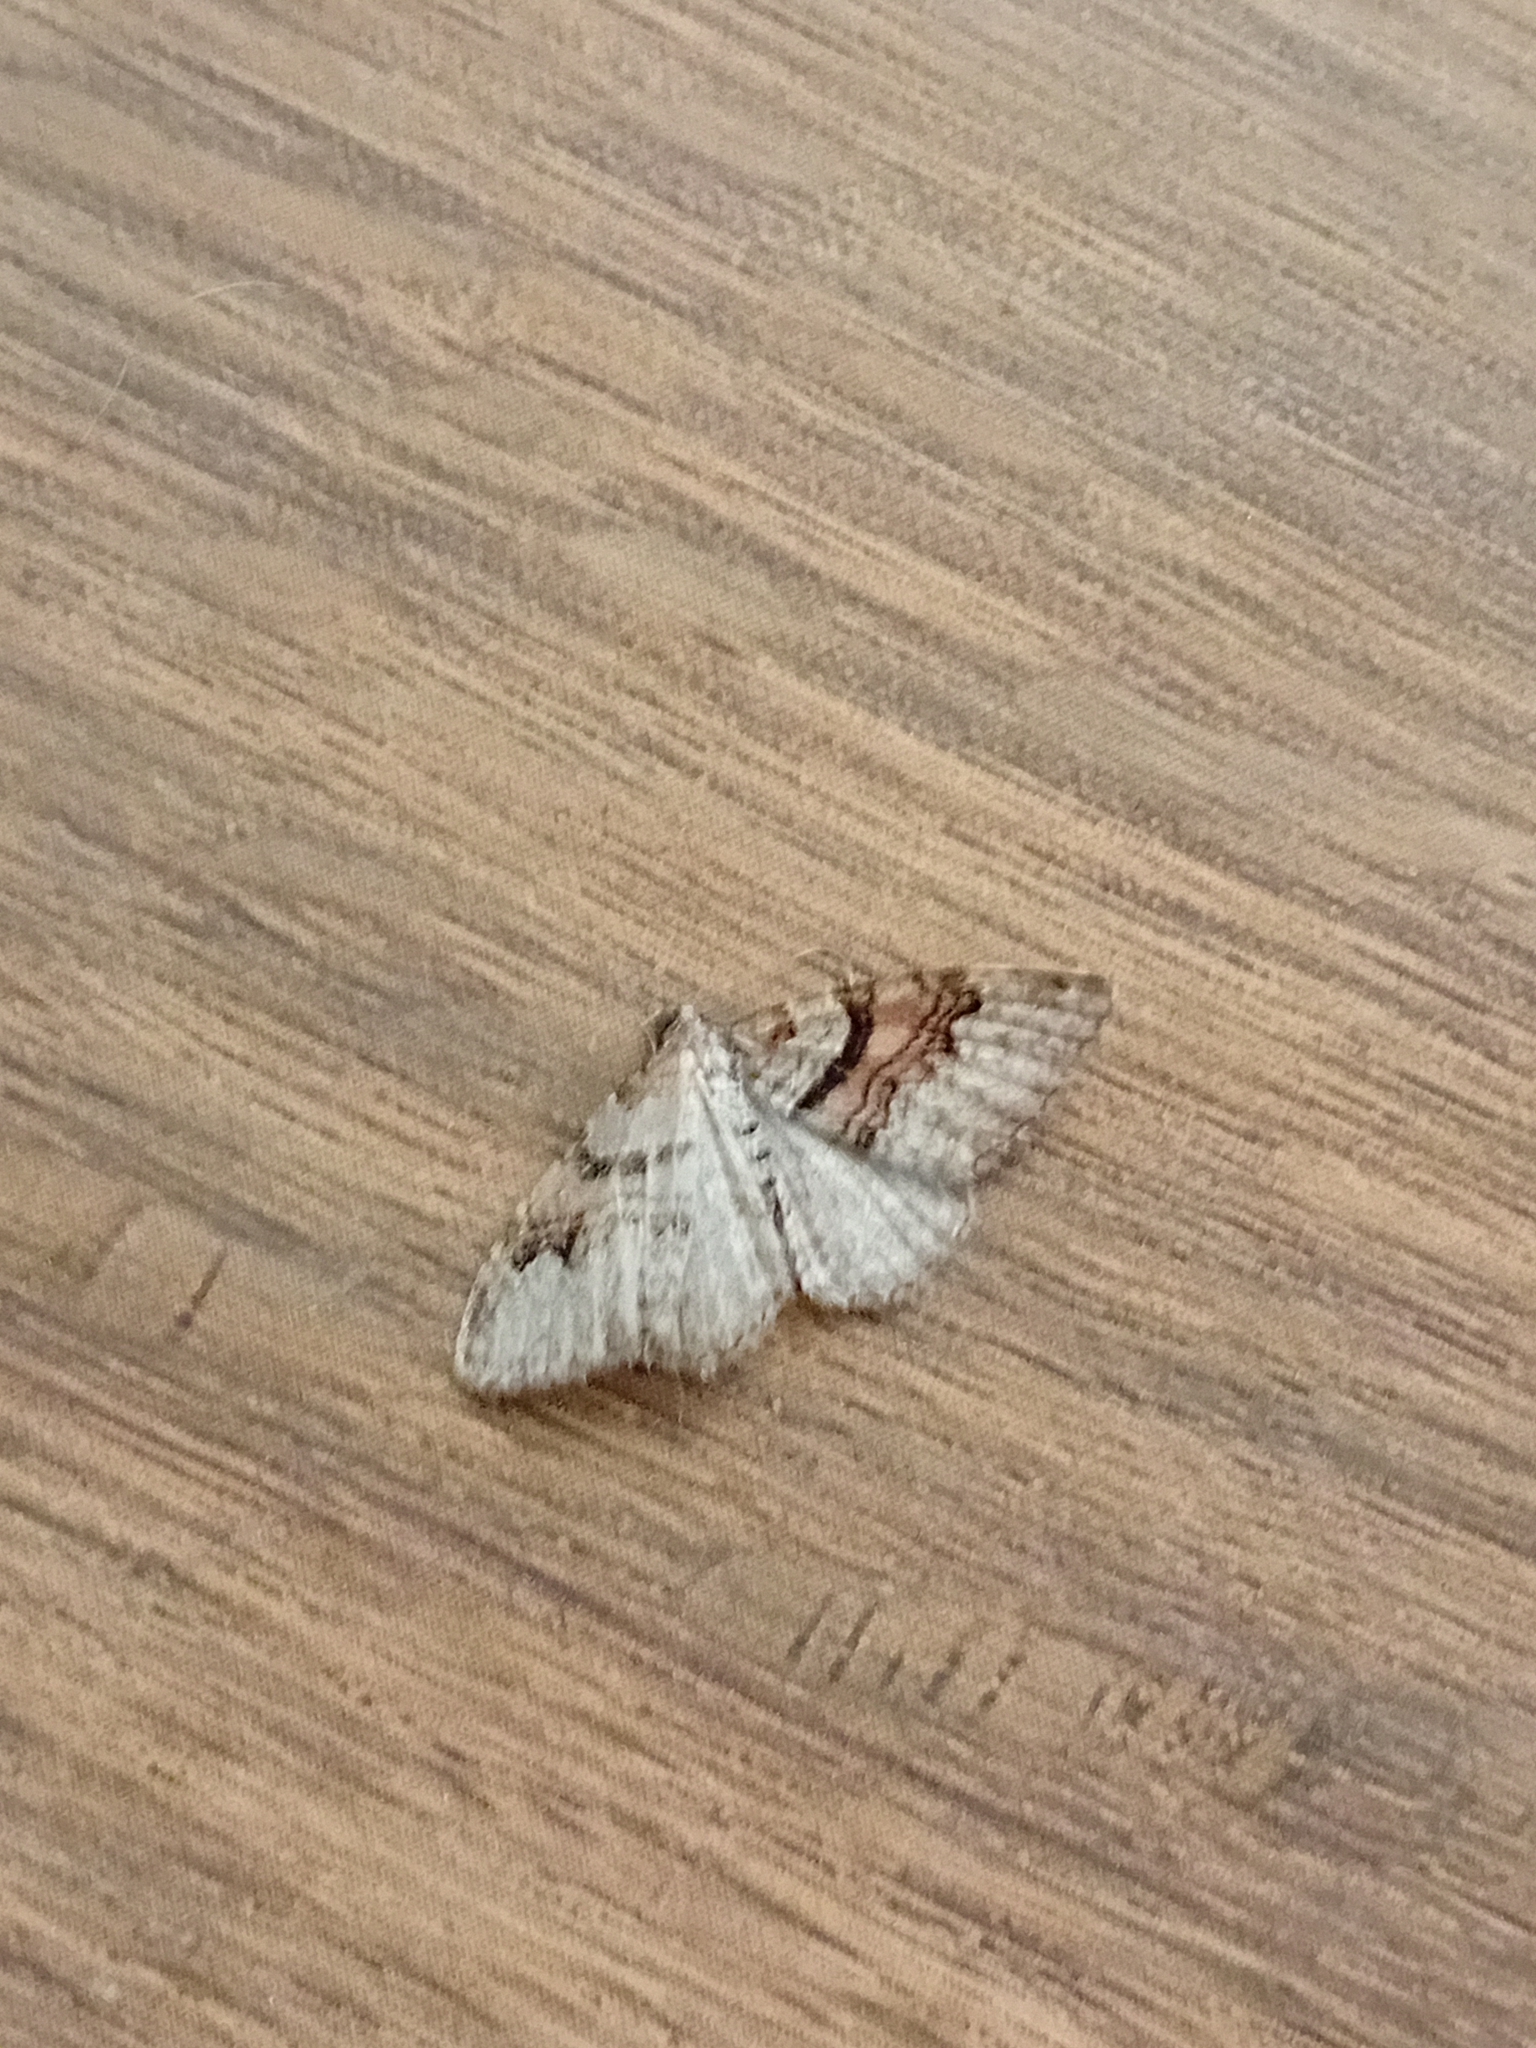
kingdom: Animalia
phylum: Arthropoda
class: Insecta
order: Lepidoptera
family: Geometridae
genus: Xanthorhoe
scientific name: Xanthorhoe designata
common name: Flame carpet
